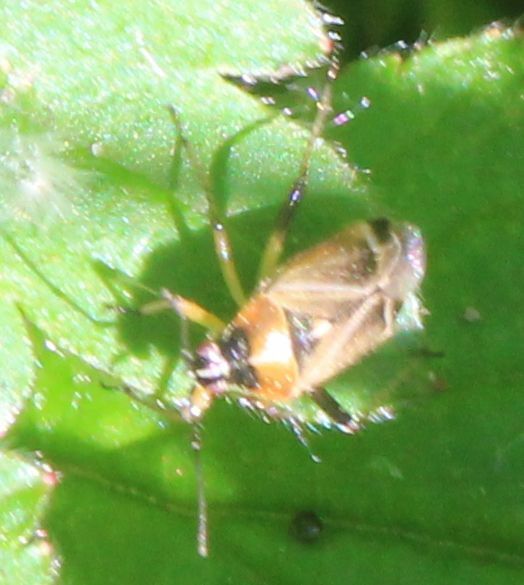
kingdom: Animalia
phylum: Arthropoda
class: Insecta
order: Hemiptera
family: Miridae
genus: Harpocera
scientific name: Harpocera thoracica
